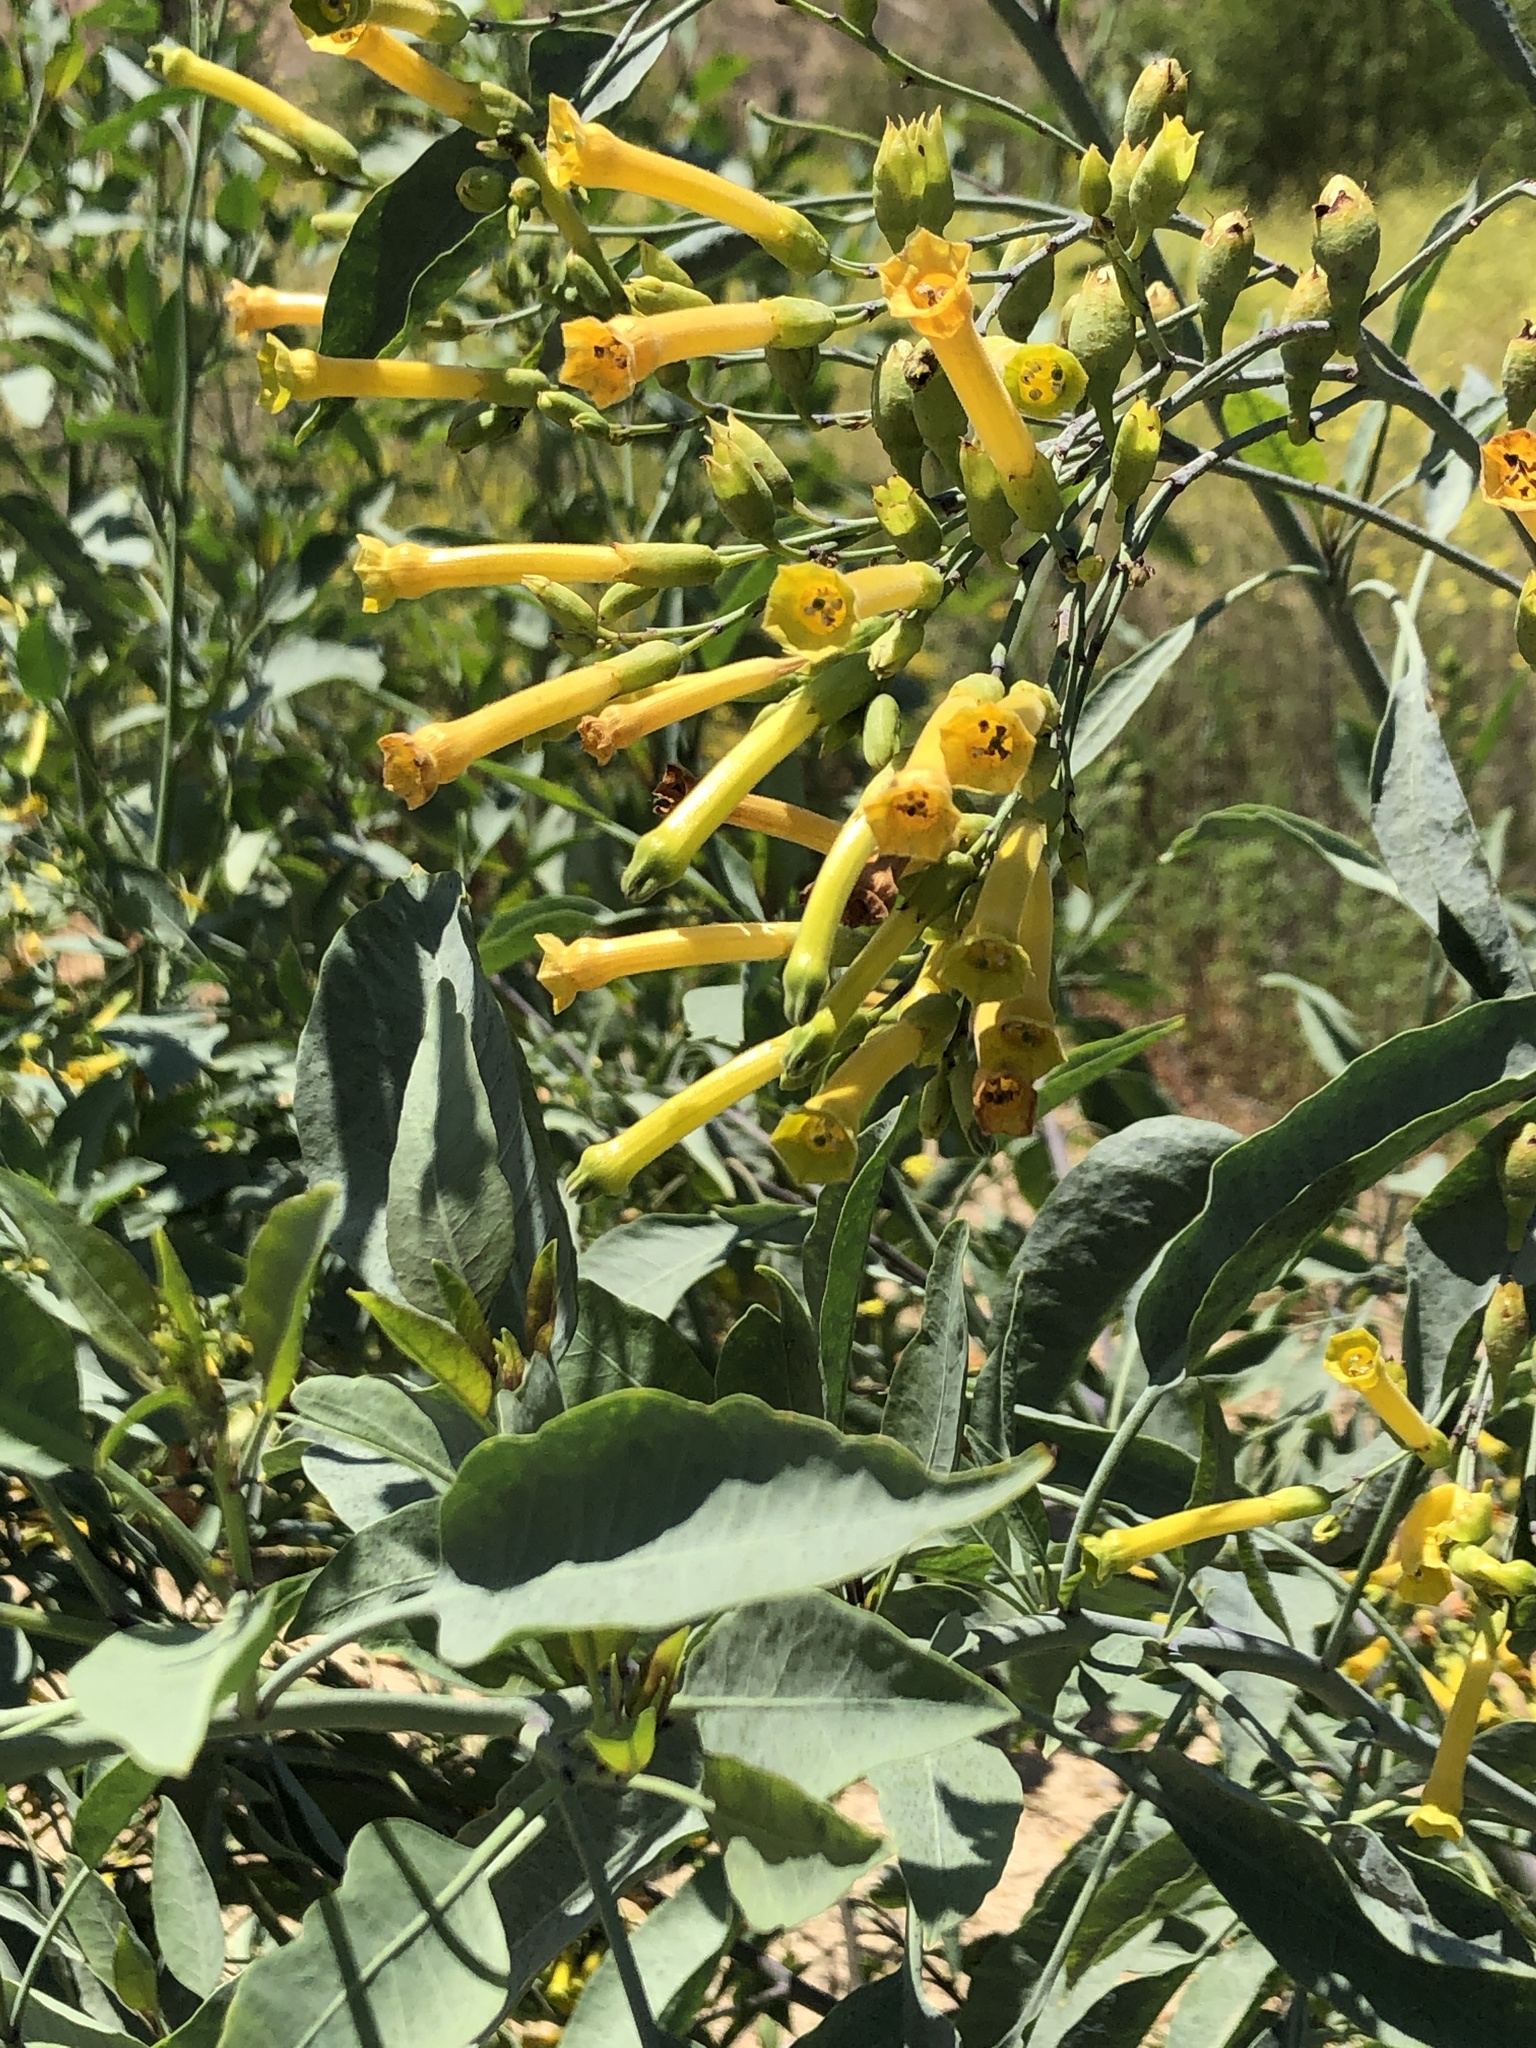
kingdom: Plantae
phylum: Tracheophyta
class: Magnoliopsida
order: Solanales
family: Solanaceae
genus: Nicotiana
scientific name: Nicotiana glauca
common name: Tree tobacco
